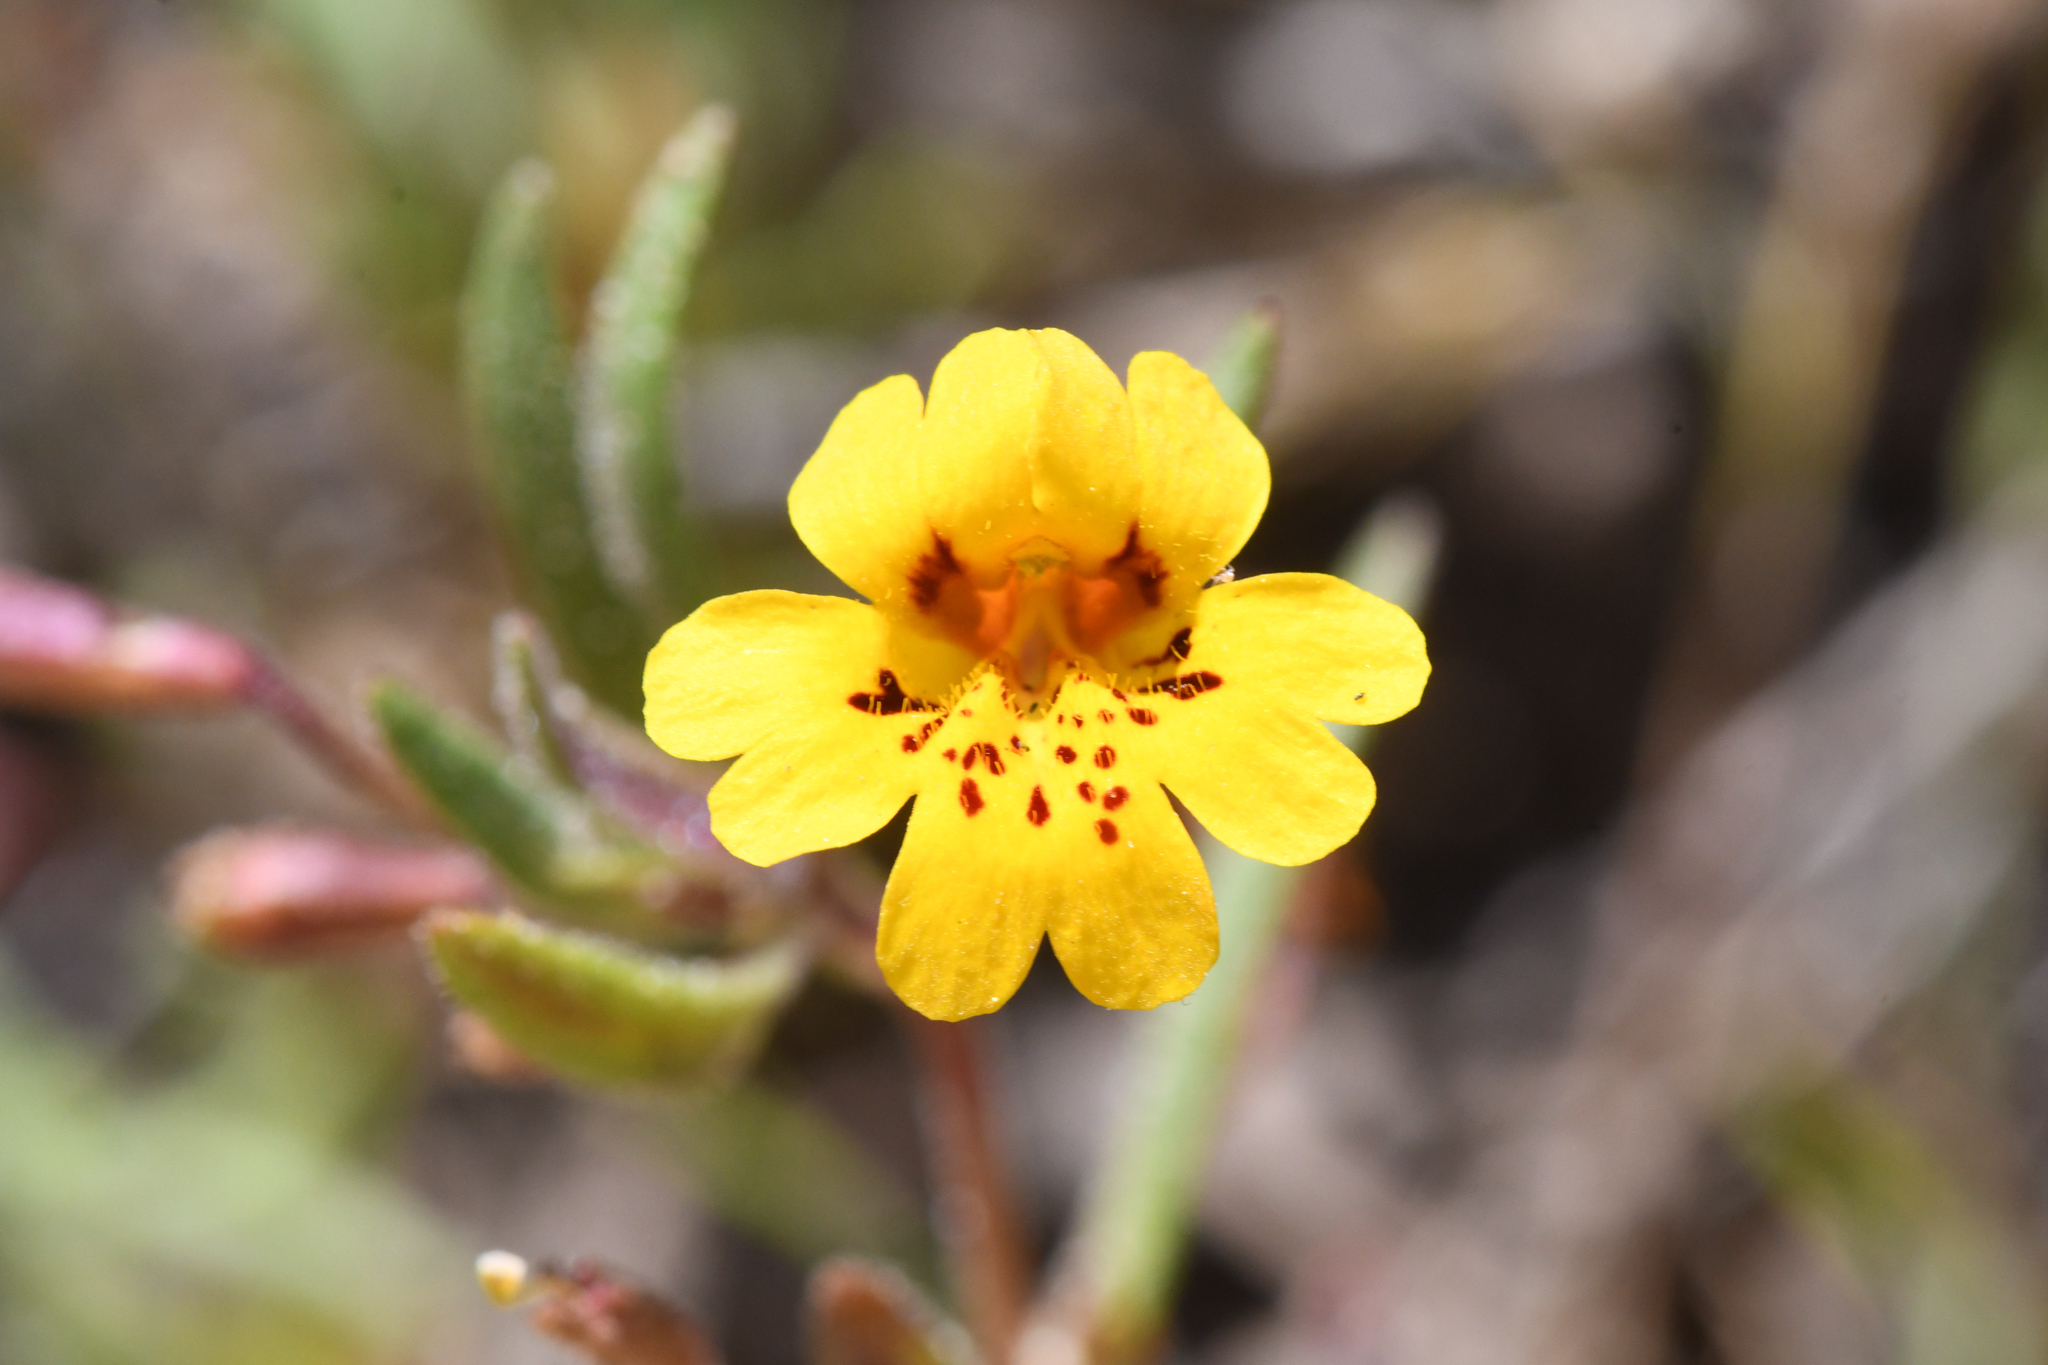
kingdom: Plantae
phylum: Tracheophyta
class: Magnoliopsida
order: Lamiales
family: Phrymaceae
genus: Erythranthe
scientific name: Erythranthe discolor
